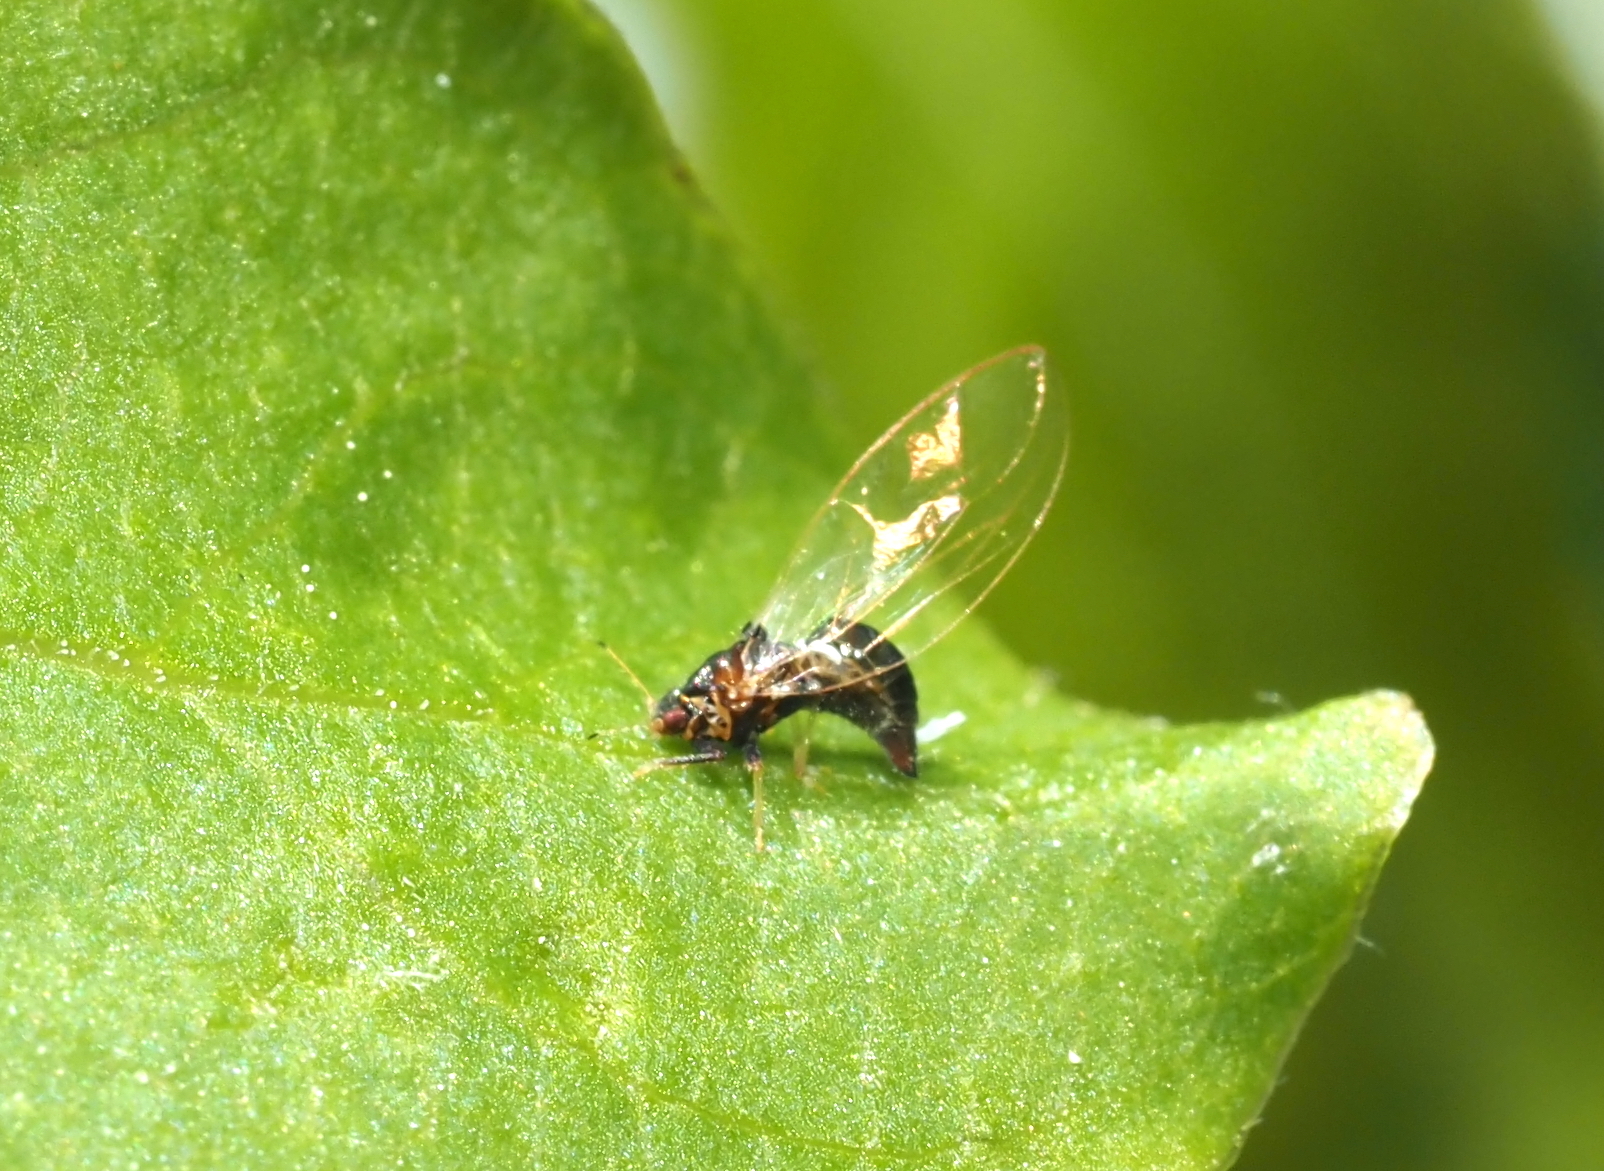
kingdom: Animalia
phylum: Arthropoda
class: Insecta
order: Hemiptera
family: Triozidae
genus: Baeoalitriozus
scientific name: Baeoalitriozus diospyri
